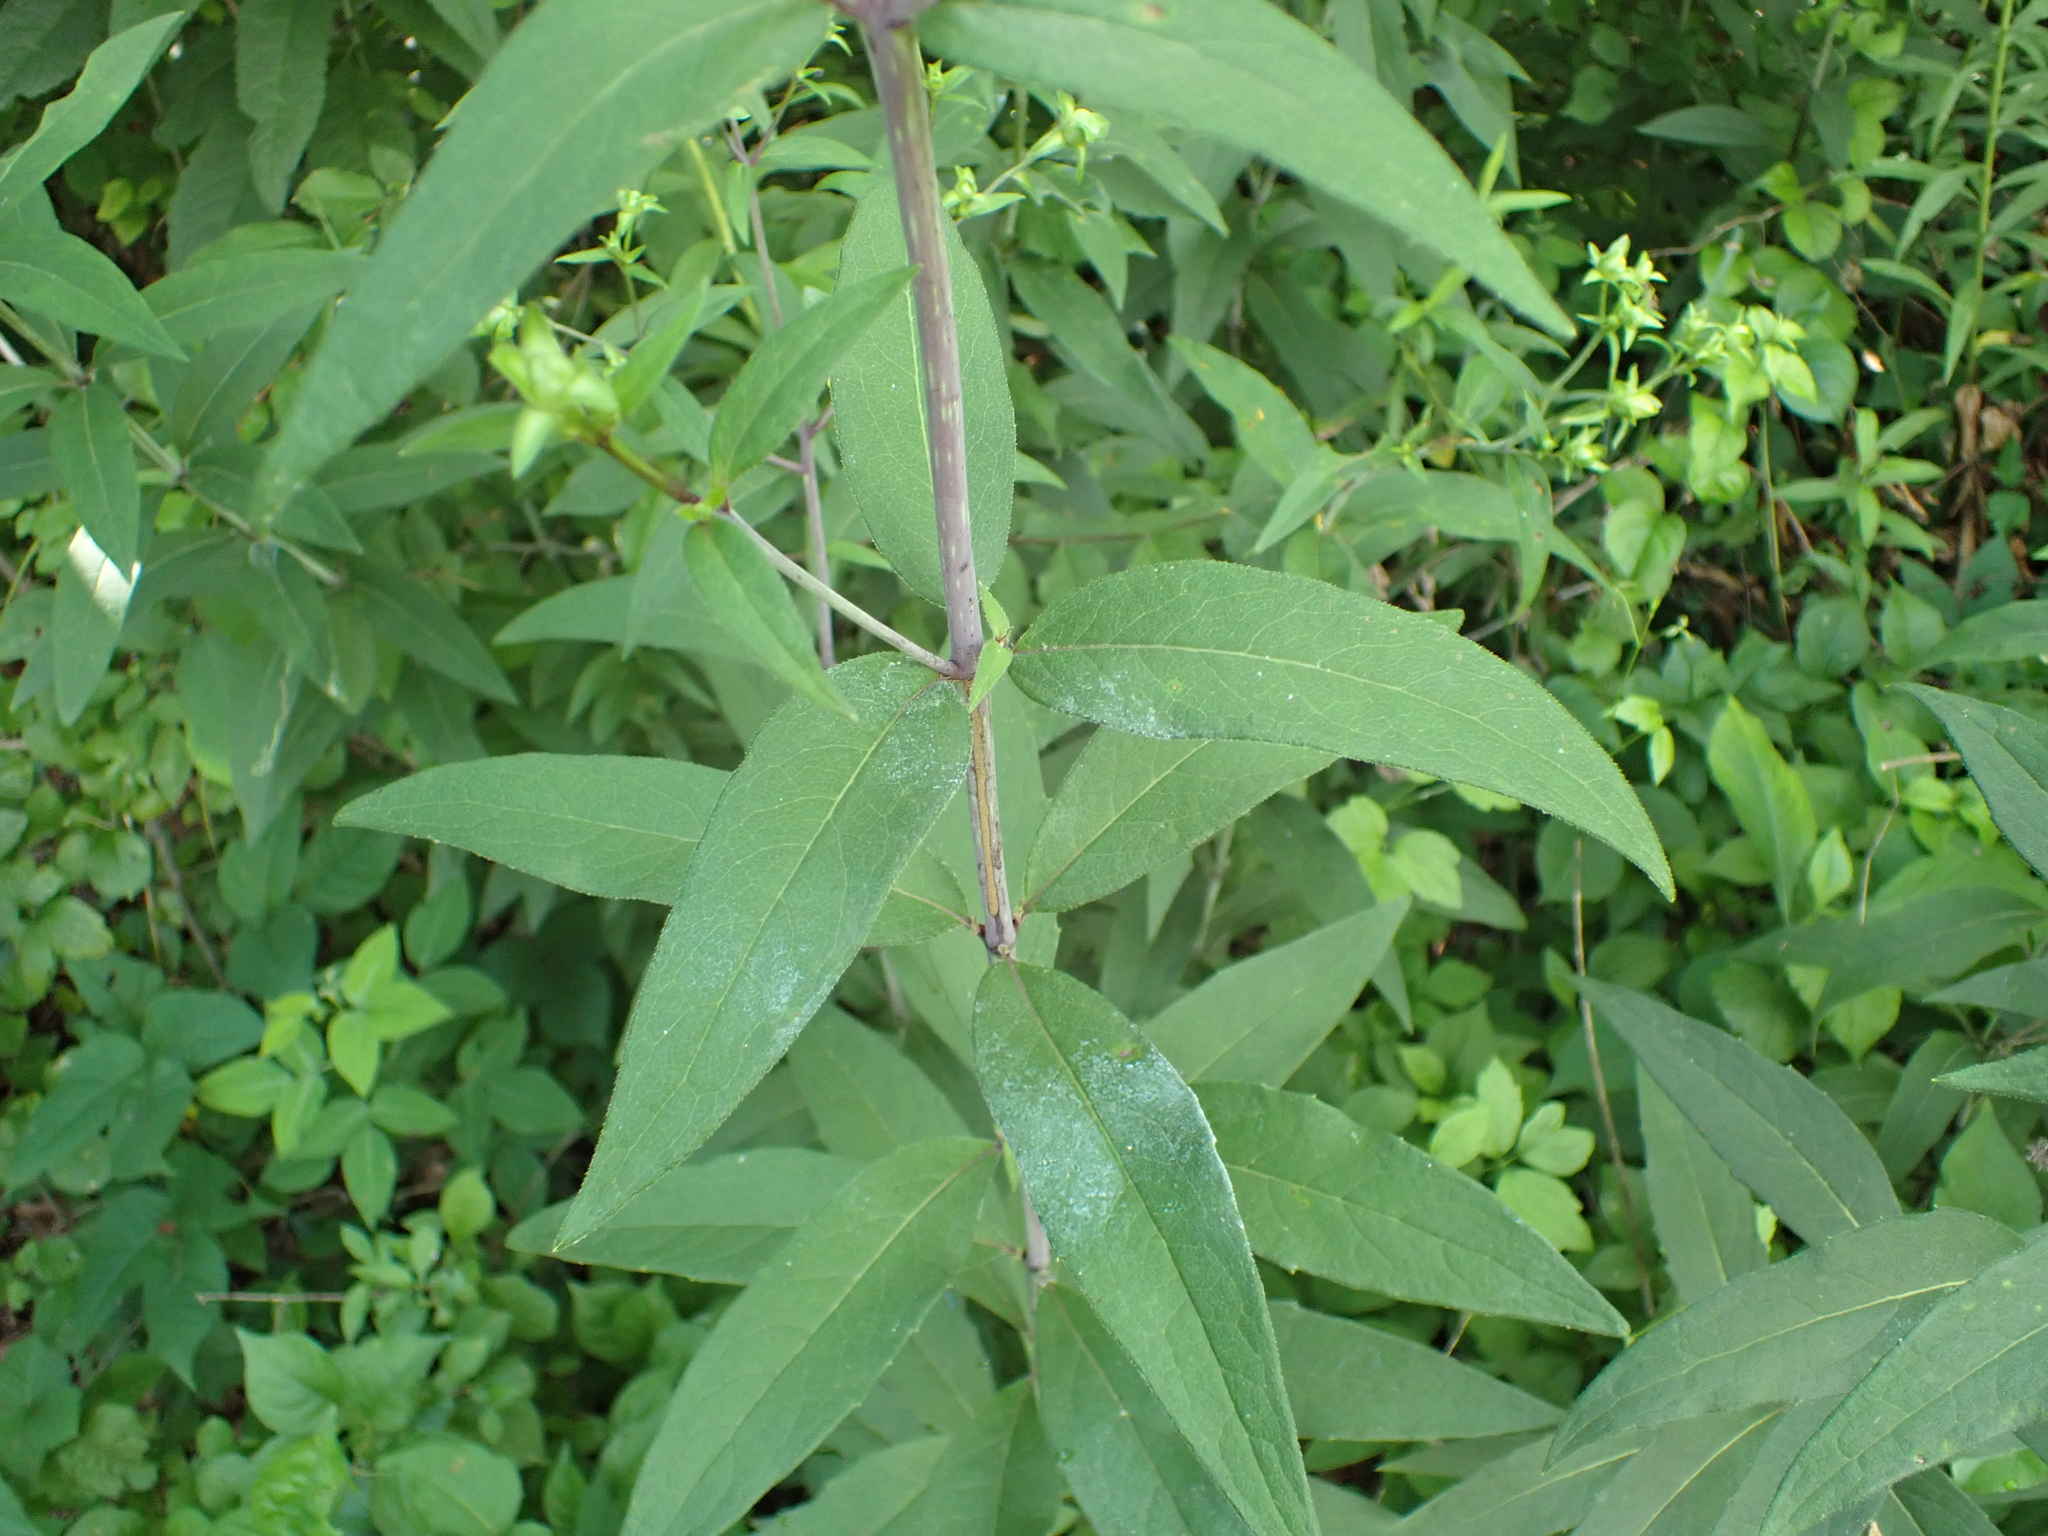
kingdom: Plantae
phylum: Tracheophyta
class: Magnoliopsida
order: Asterales
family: Asteraceae
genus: Silphium
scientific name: Silphium asteriscus
